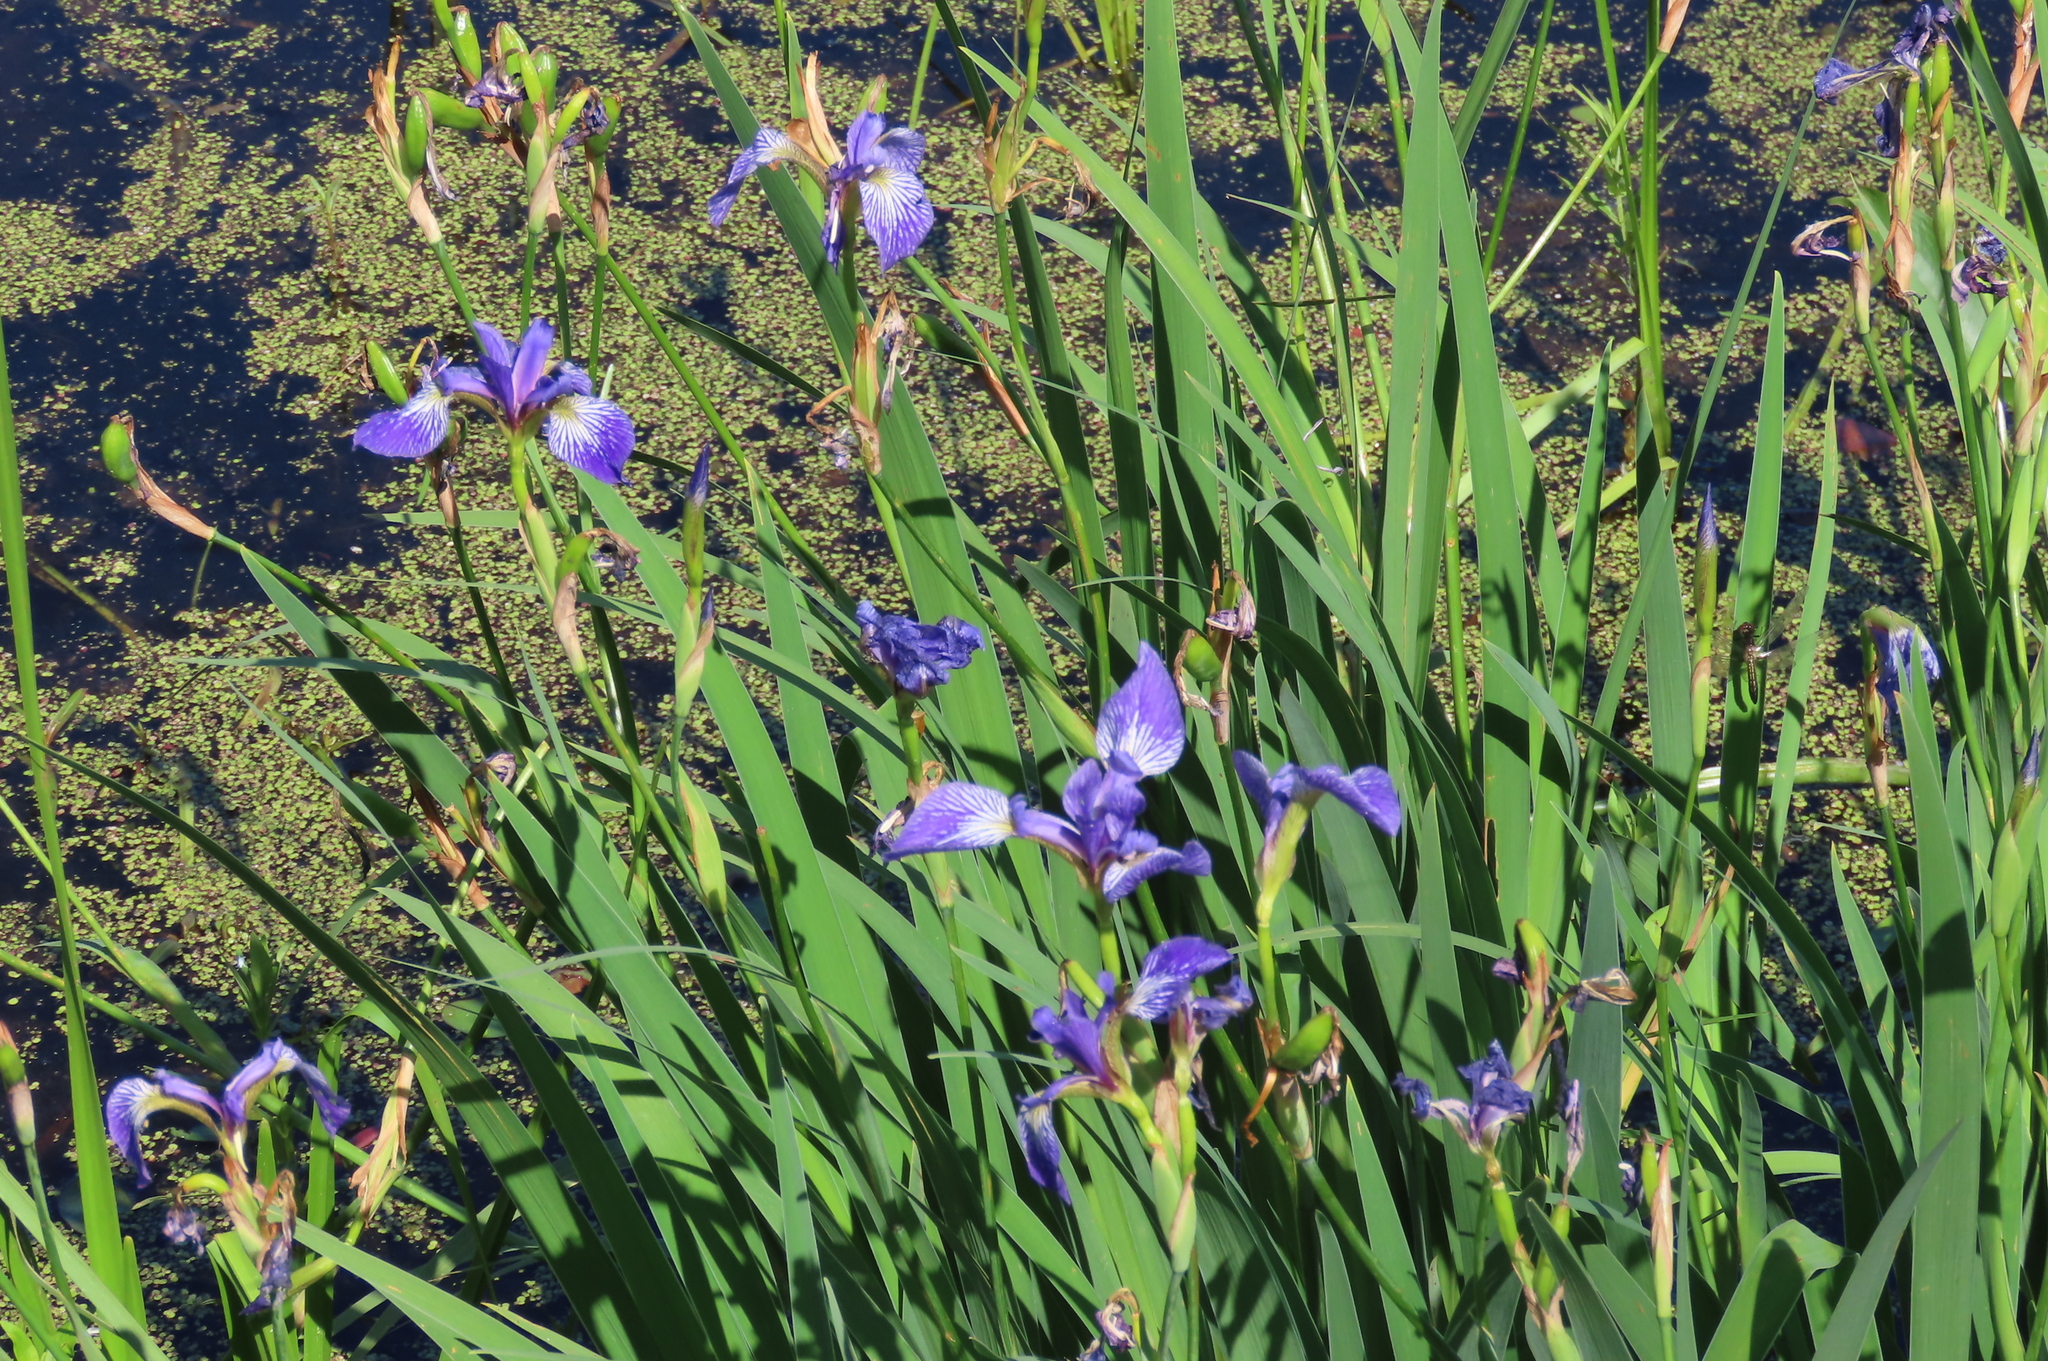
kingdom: Plantae
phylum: Tracheophyta
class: Liliopsida
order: Asparagales
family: Iridaceae
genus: Iris
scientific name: Iris versicolor
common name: Purple iris
